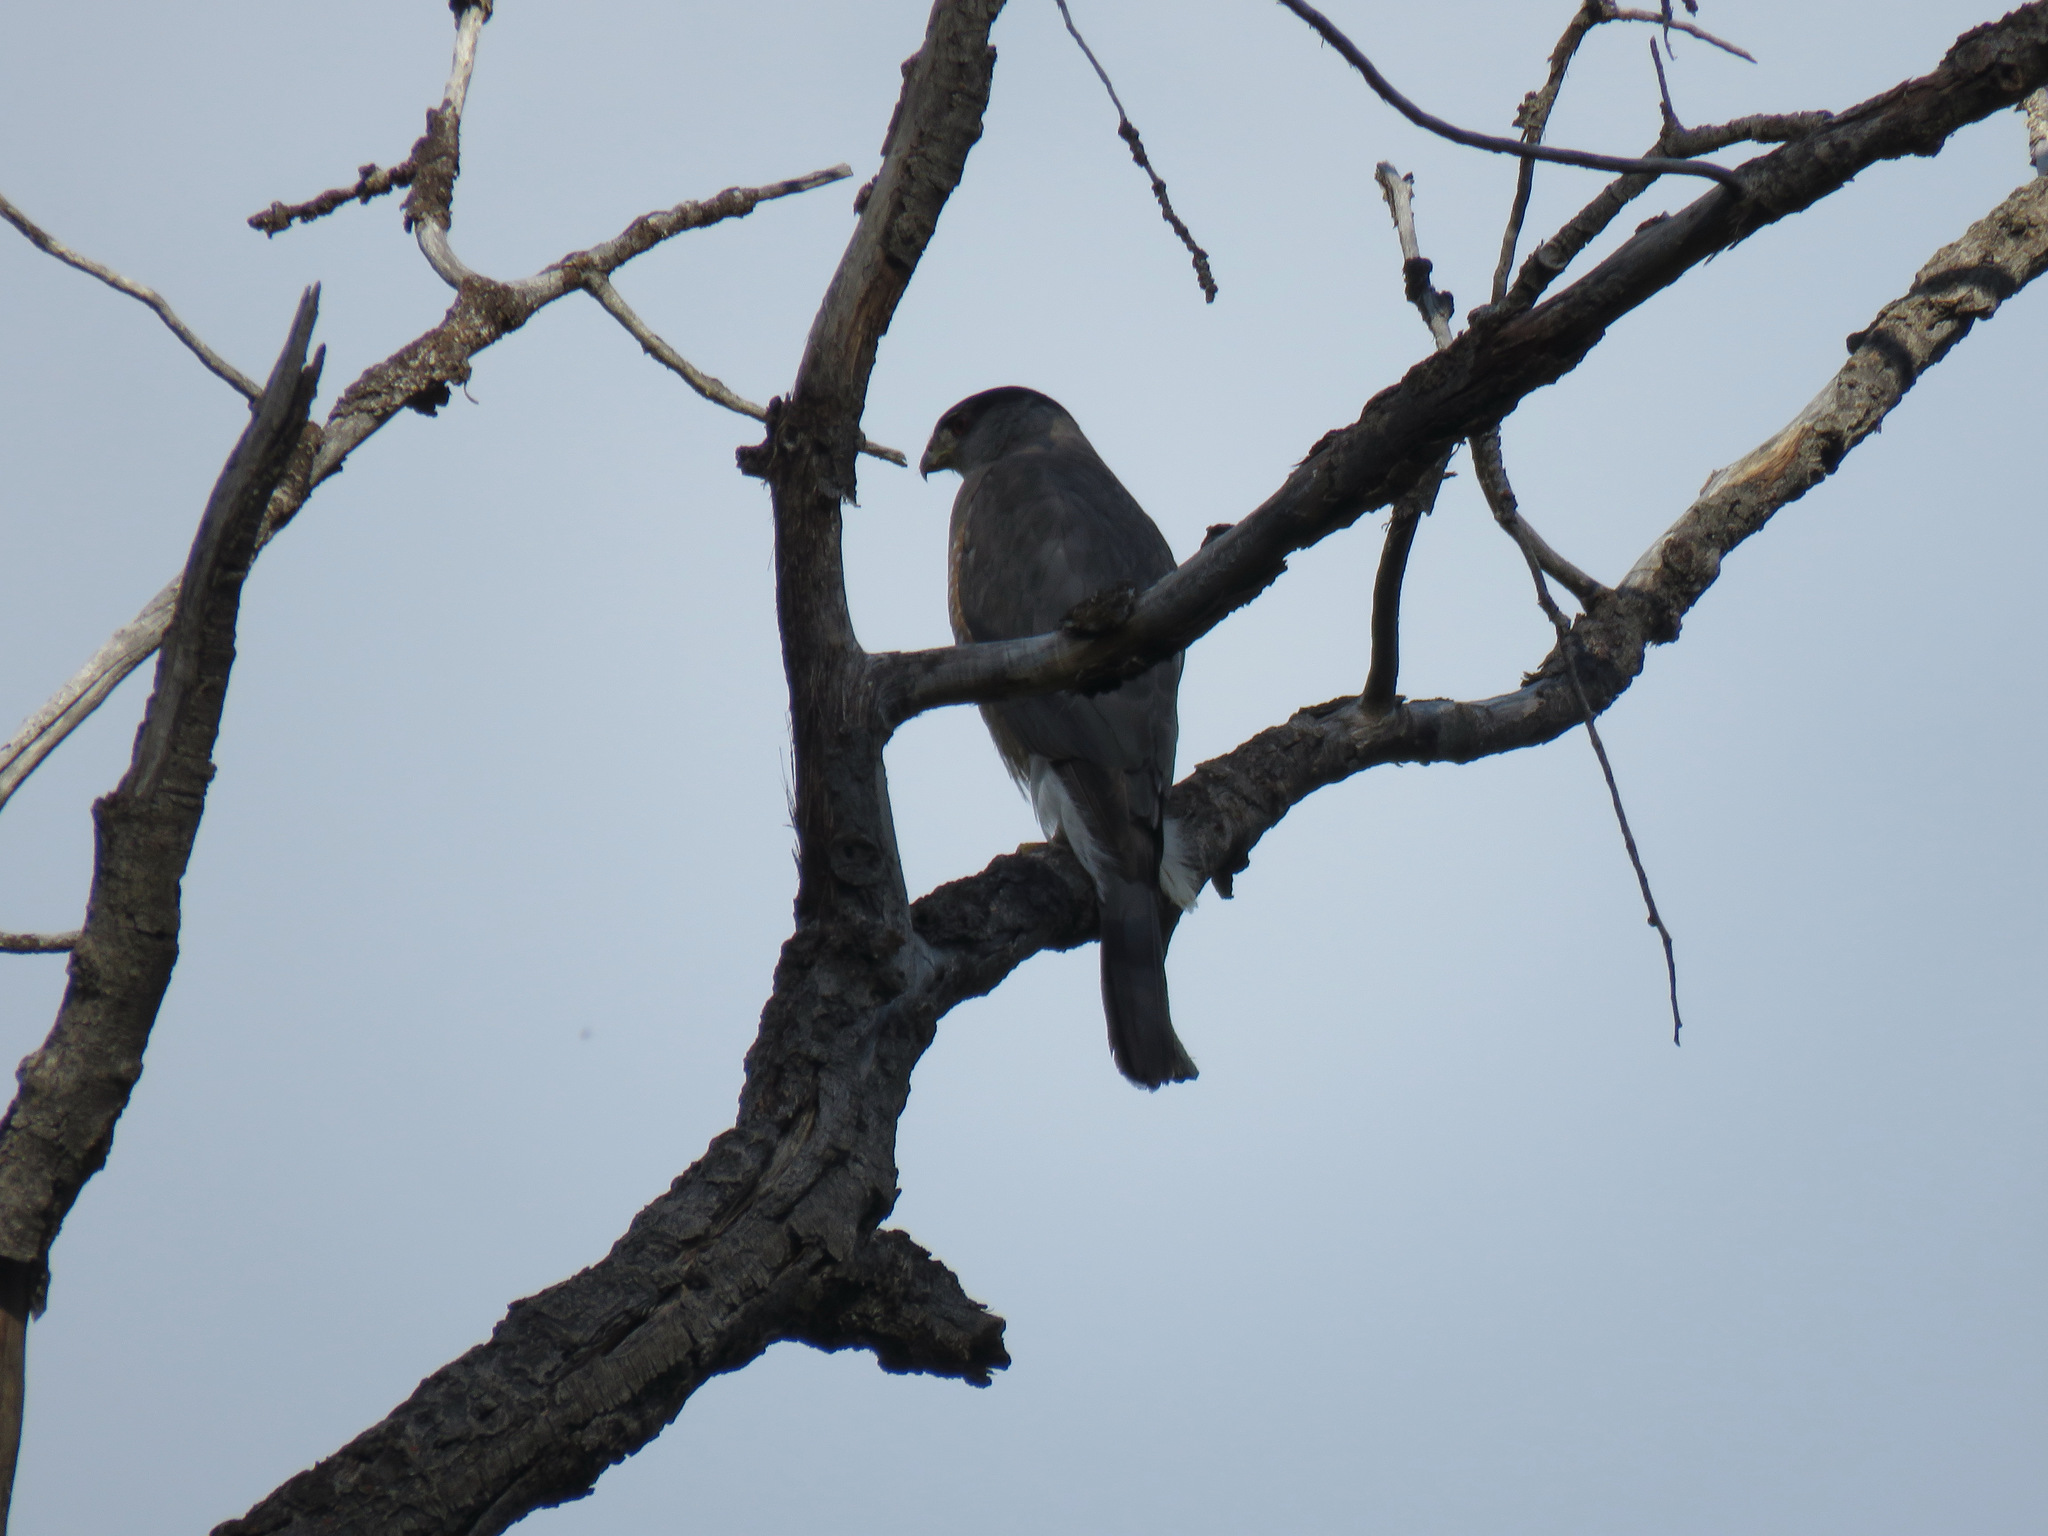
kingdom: Animalia
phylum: Chordata
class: Aves
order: Accipitriformes
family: Accipitridae
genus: Accipiter
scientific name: Accipiter cooperii
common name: Cooper's hawk
